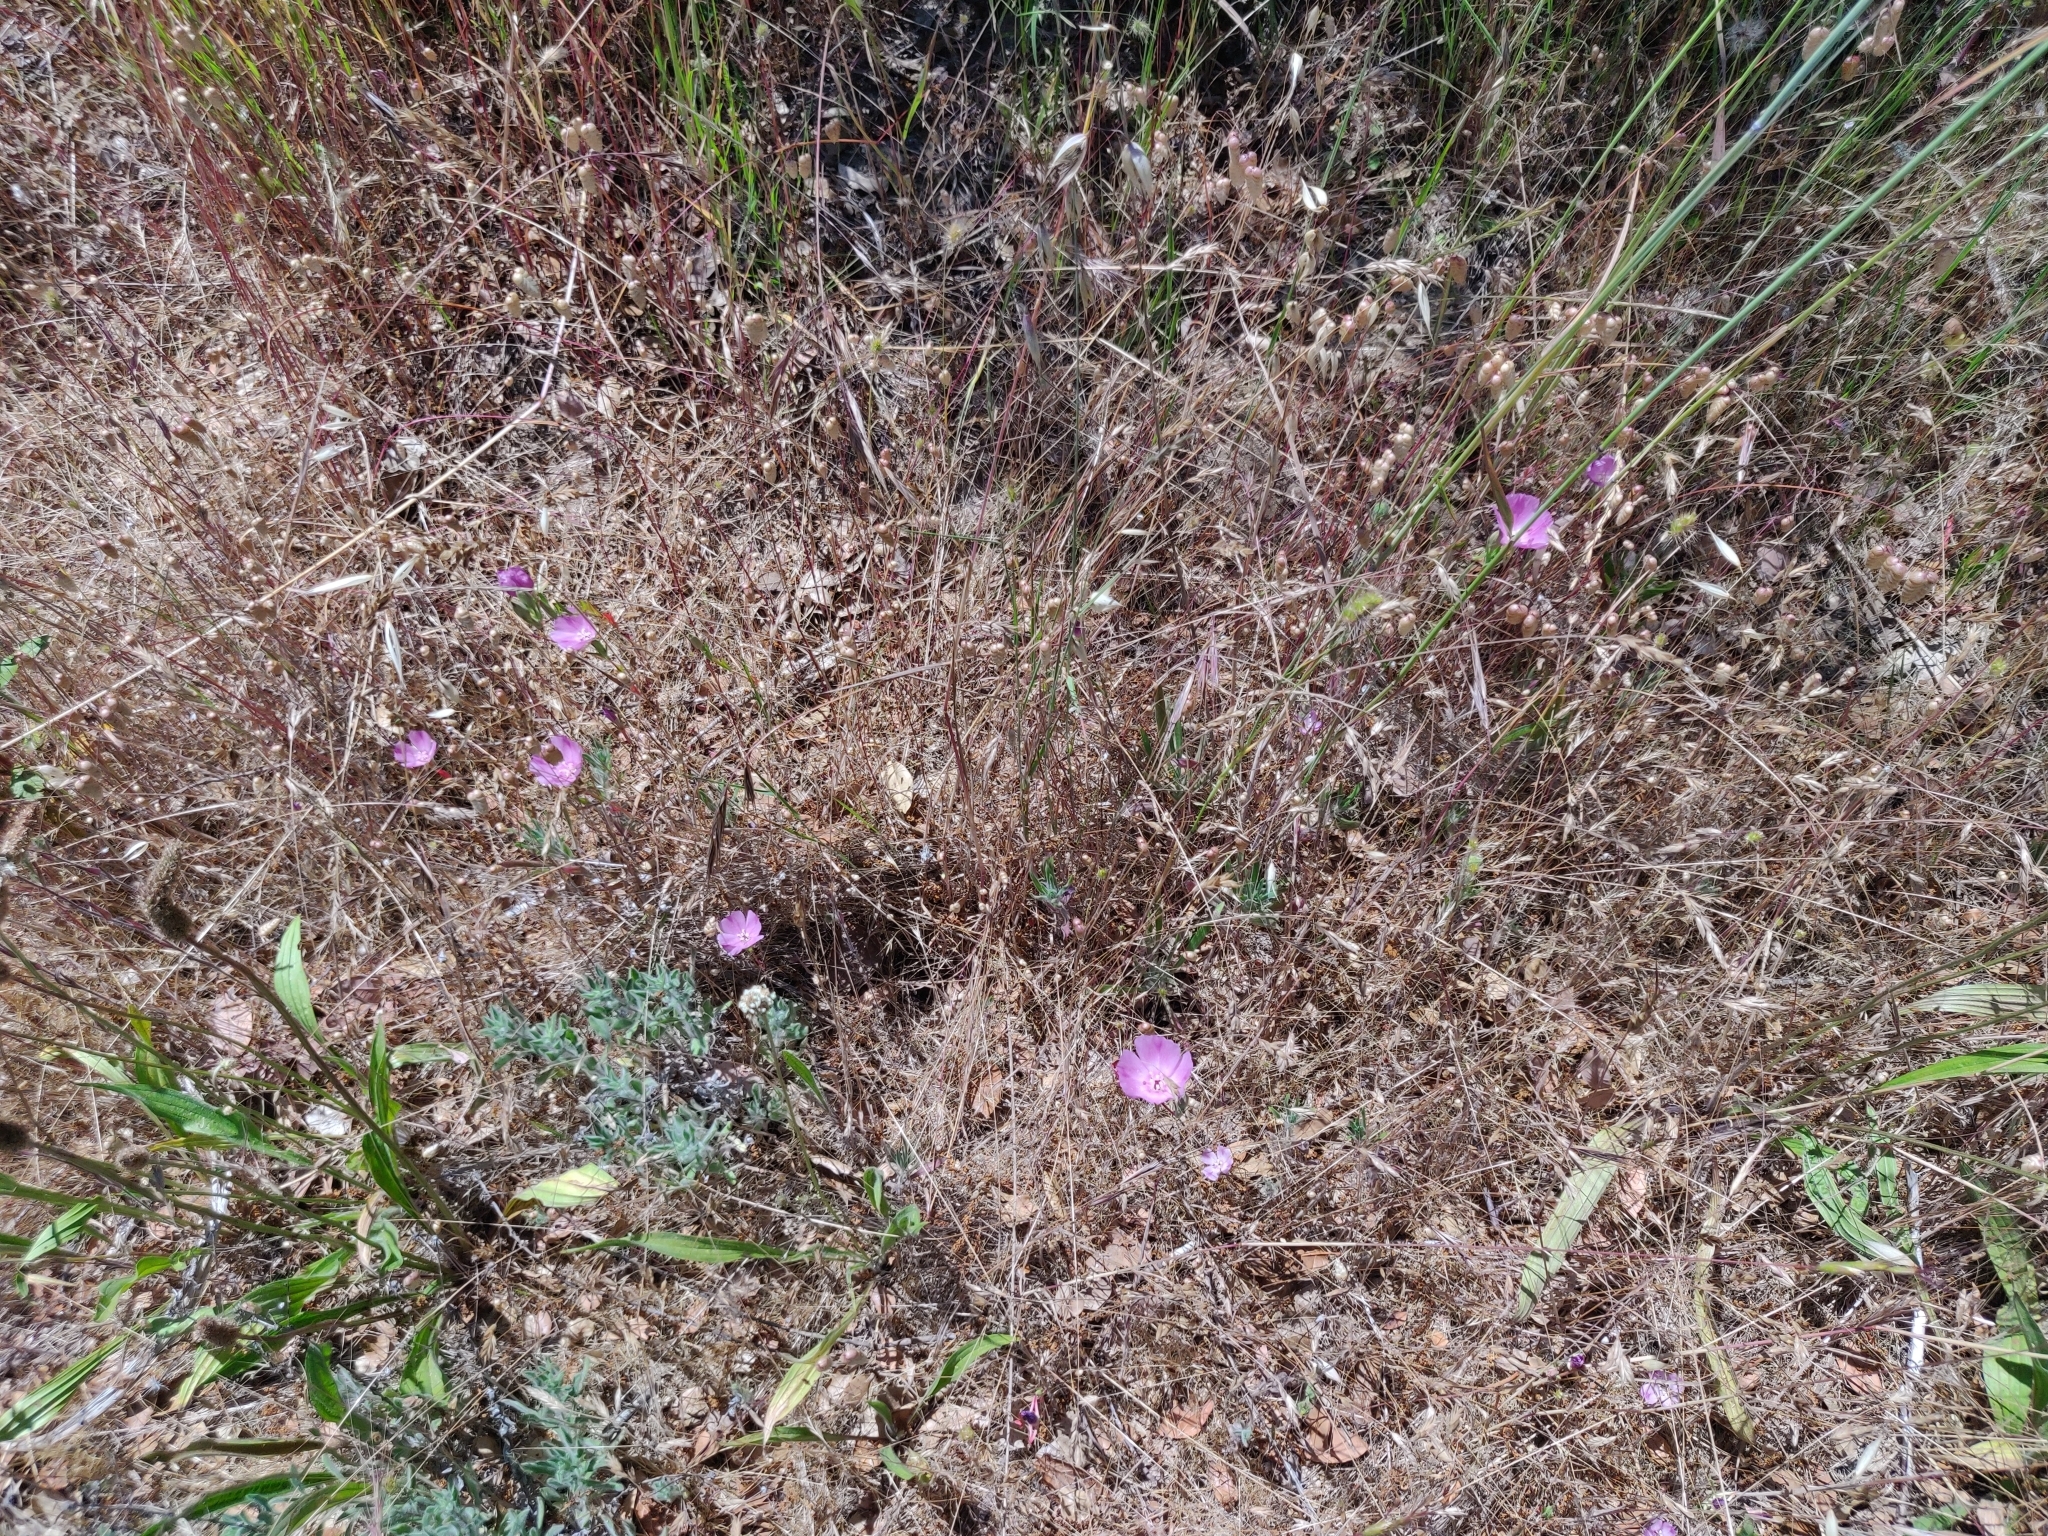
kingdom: Plantae
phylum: Tracheophyta
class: Magnoliopsida
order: Myrtales
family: Onagraceae
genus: Clarkia
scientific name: Clarkia purpurea
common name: Purple clarkia
